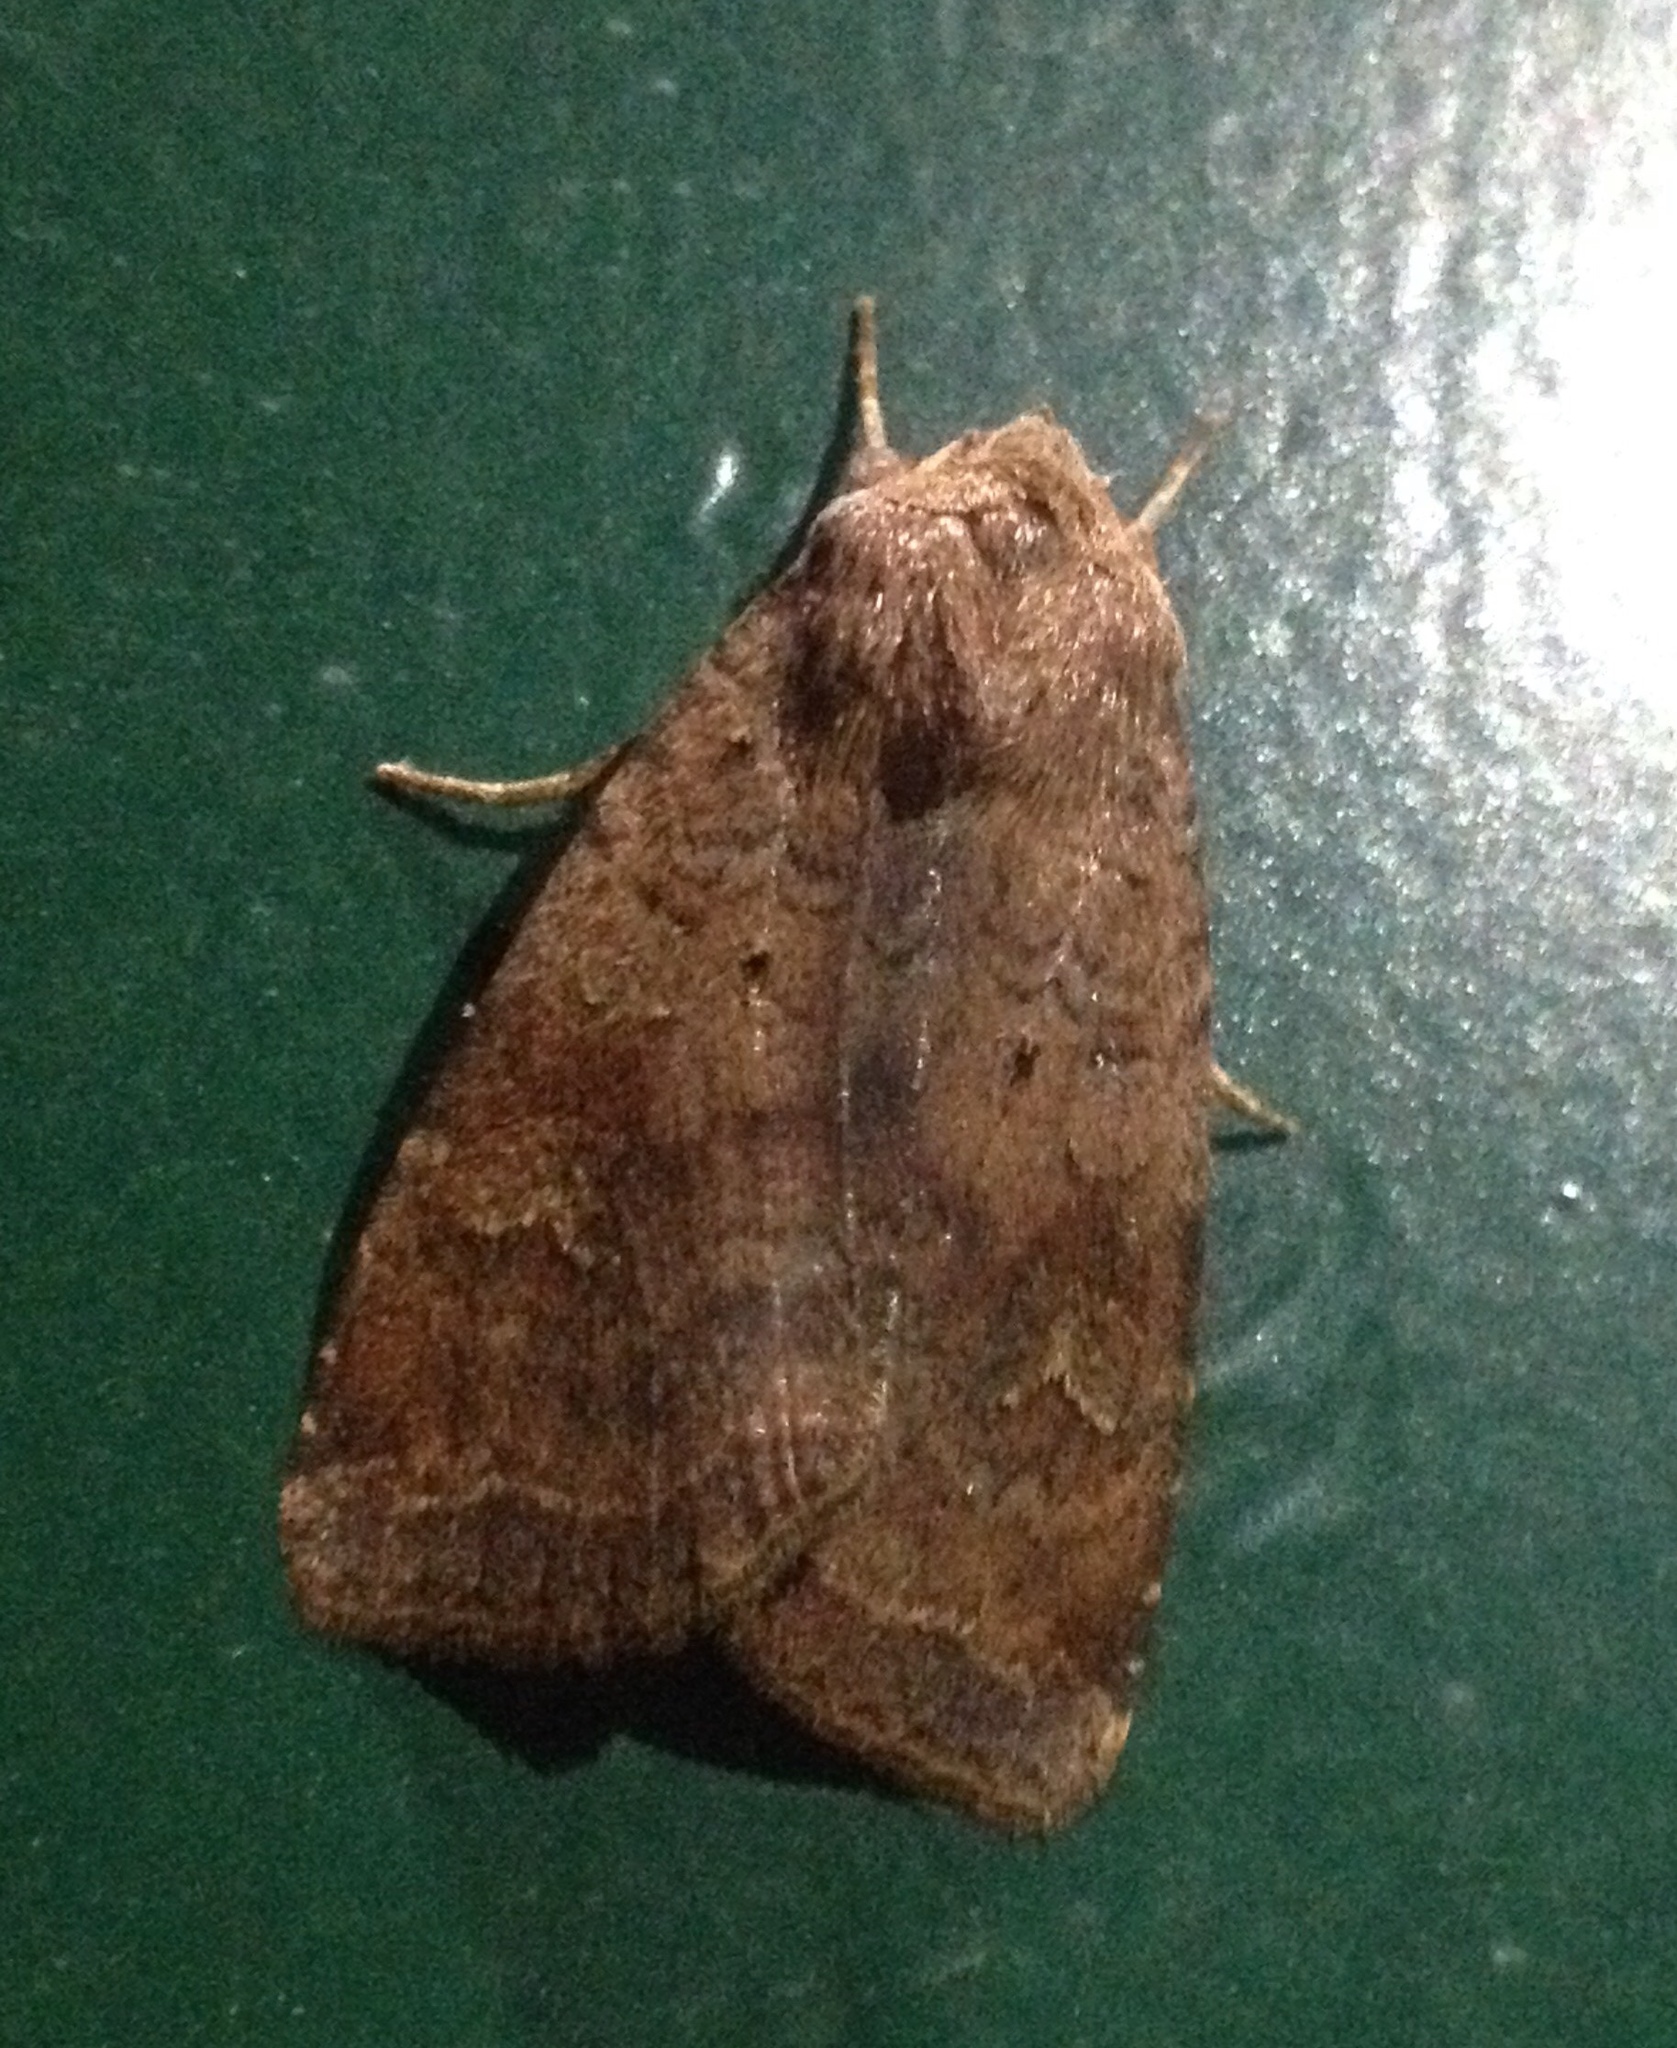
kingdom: Animalia
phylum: Arthropoda
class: Insecta
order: Lepidoptera
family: Noctuidae
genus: Diarsia
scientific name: Diarsia dahlii
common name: Barred chestnut
